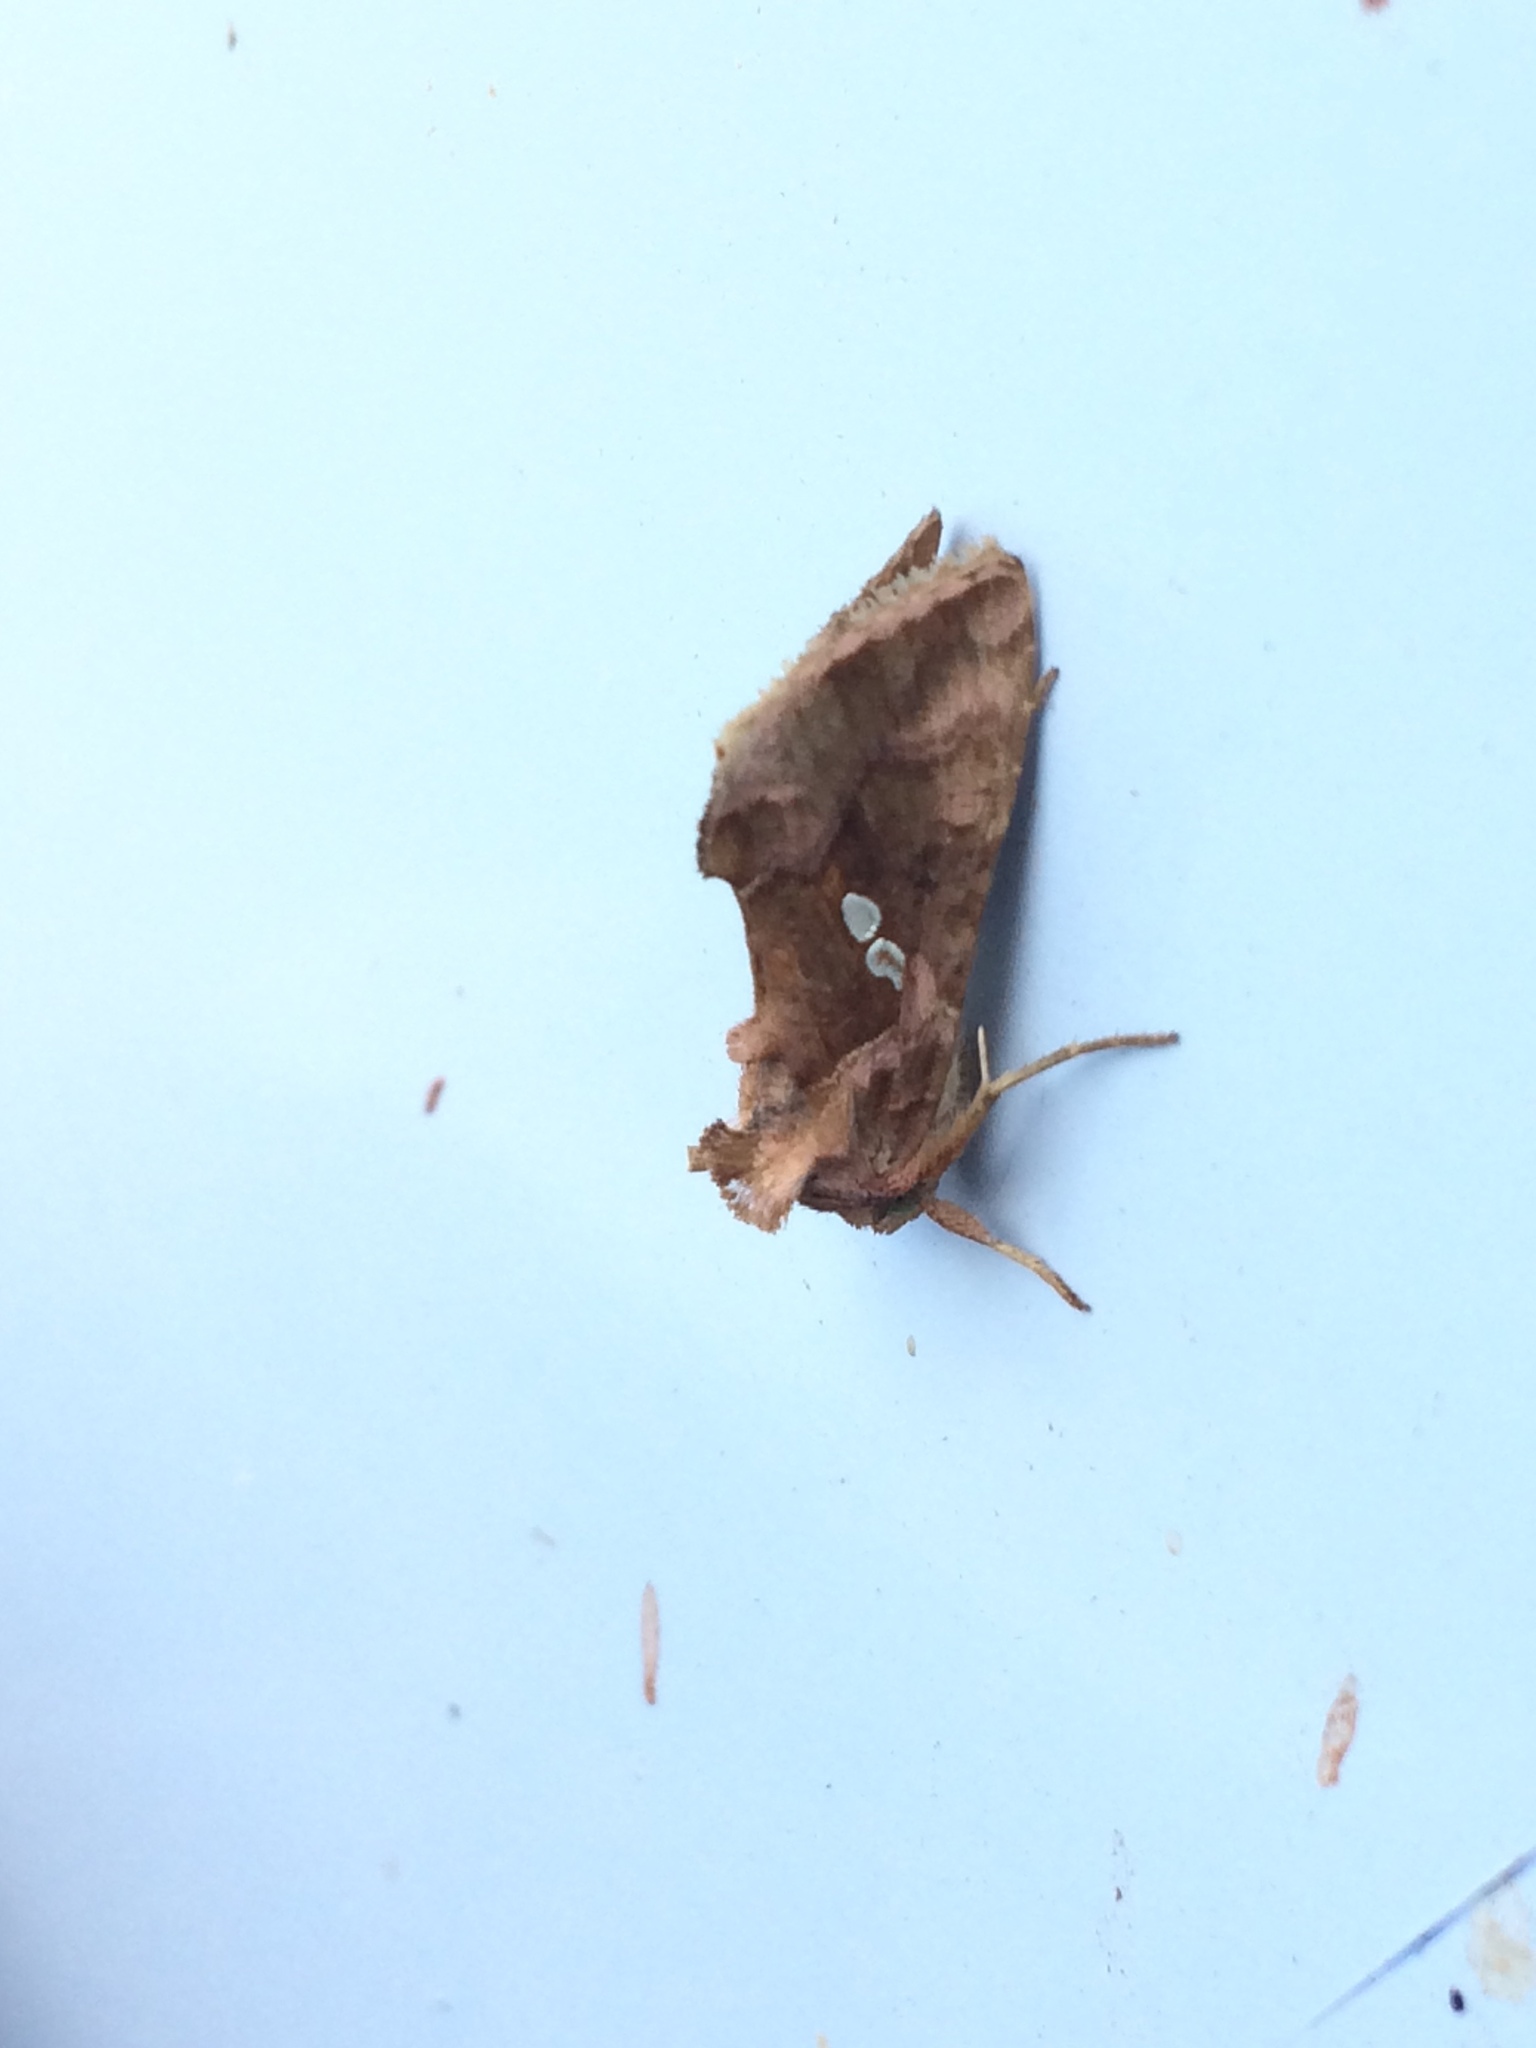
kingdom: Animalia
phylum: Arthropoda
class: Insecta
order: Lepidoptera
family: Noctuidae
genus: Chrysodeixis
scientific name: Chrysodeixis chalcites
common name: Golden twin-spot
